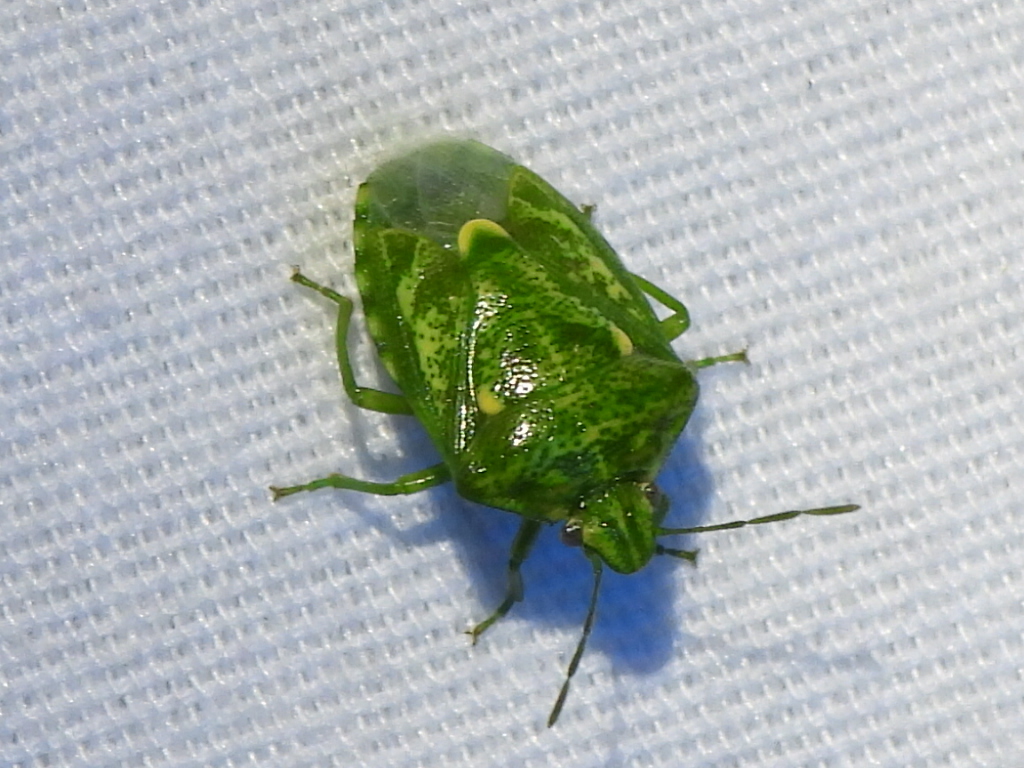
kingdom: Animalia
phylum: Arthropoda
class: Insecta
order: Hemiptera
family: Pentatomidae
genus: Banasa
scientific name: Banasa euchlora
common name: Cedar berry bug
